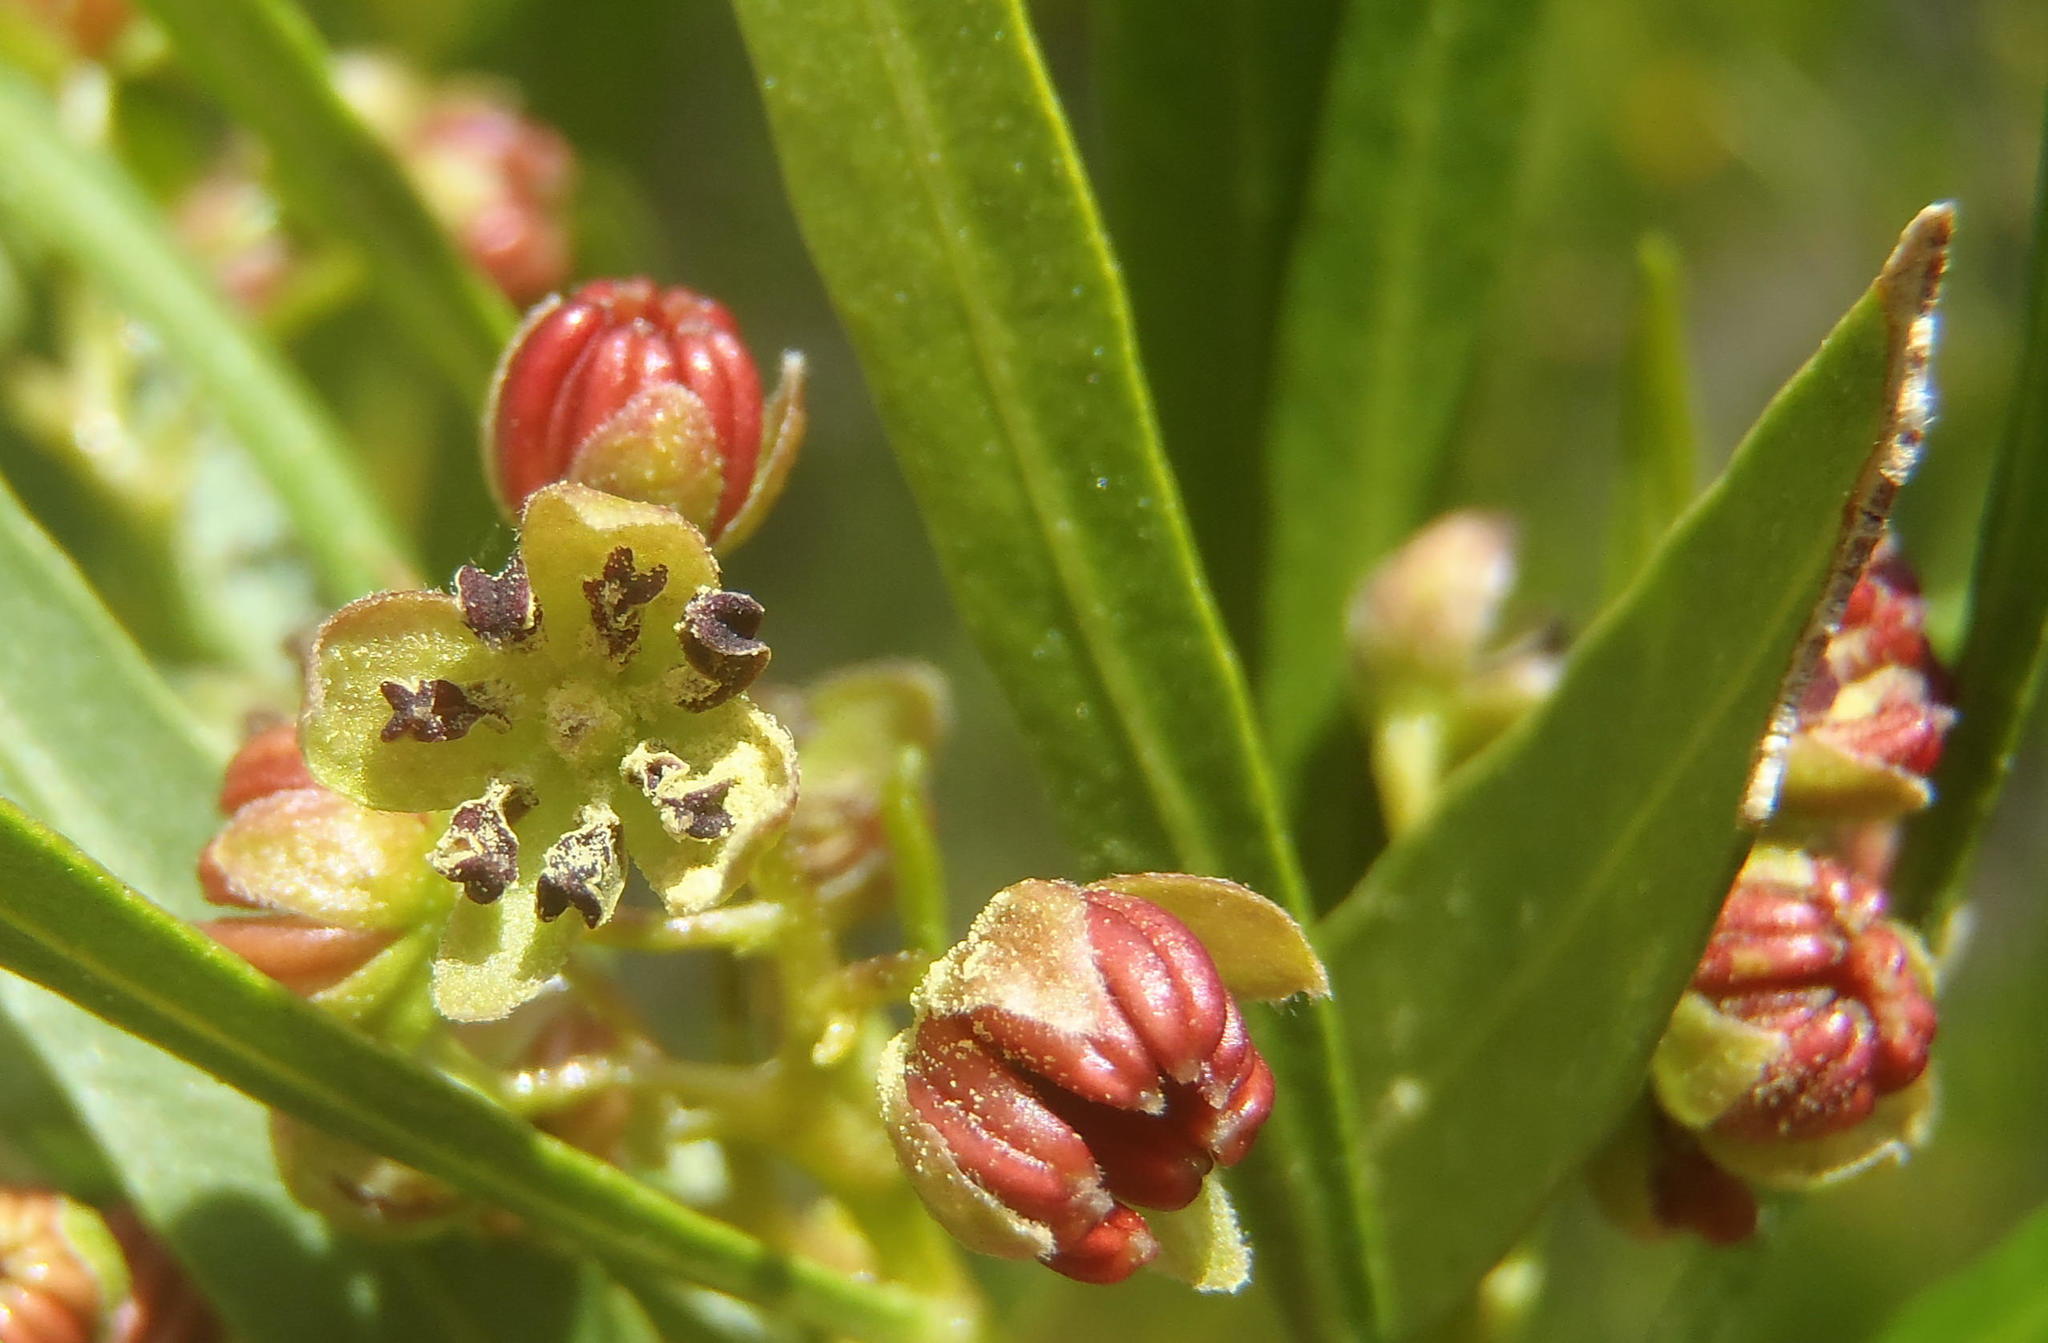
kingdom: Plantae
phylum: Tracheophyta
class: Magnoliopsida
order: Sapindales
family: Sapindaceae
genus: Dodonaea
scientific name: Dodonaea viscosa
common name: Hopbush
